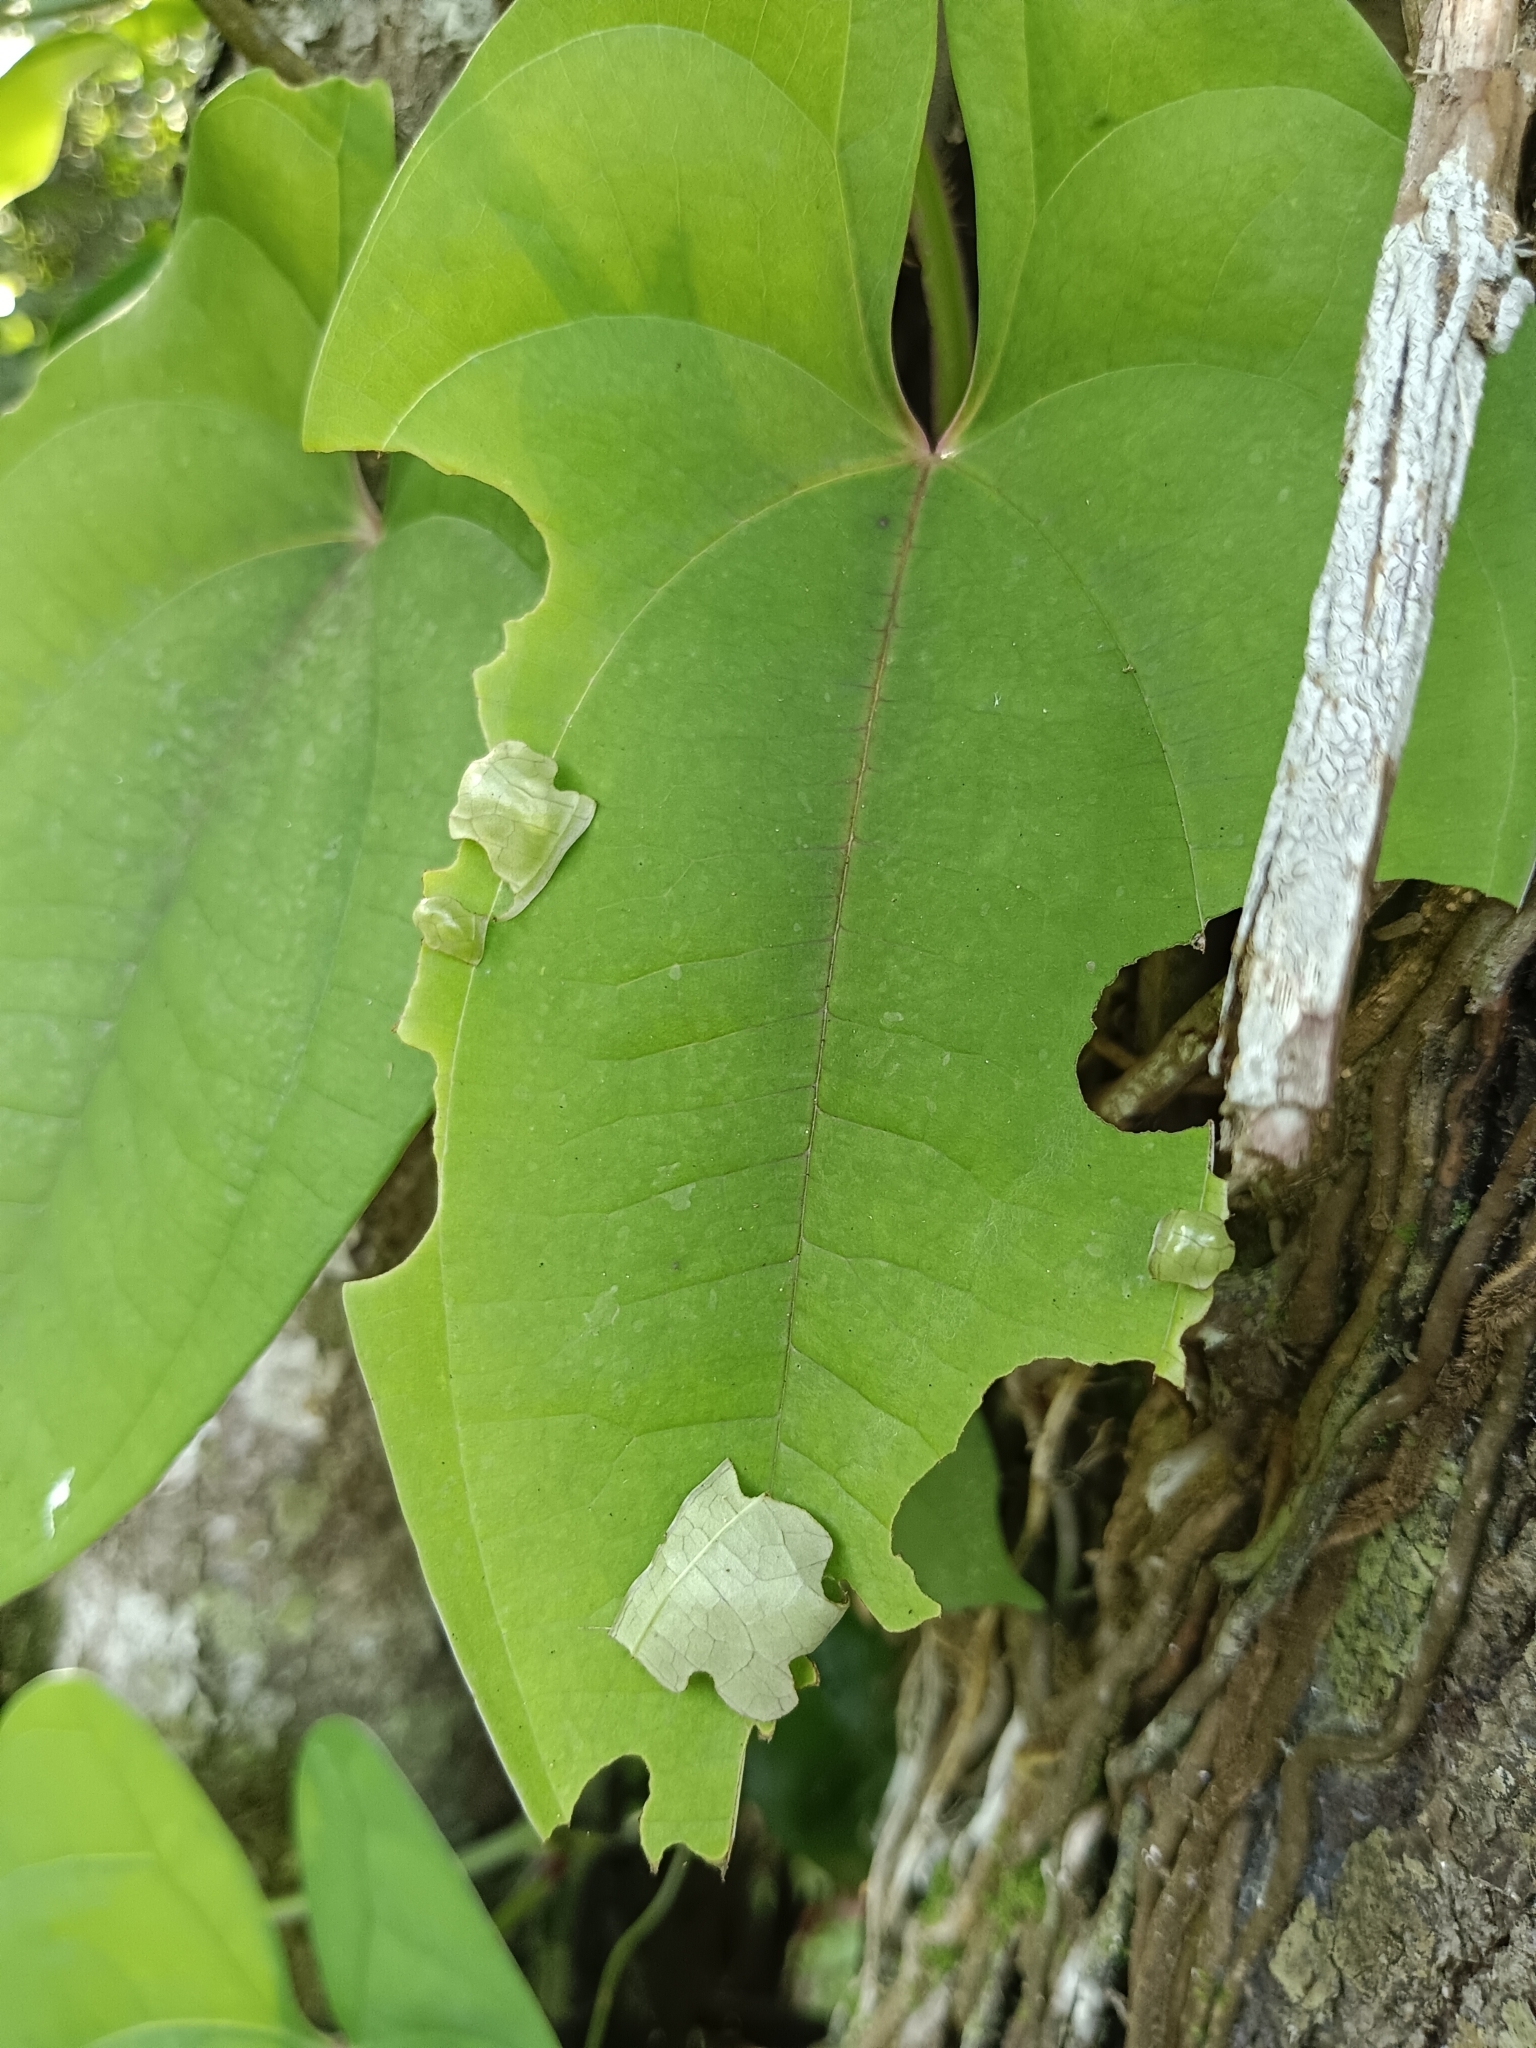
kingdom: Animalia
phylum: Arthropoda
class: Insecta
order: Lepidoptera
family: Hesperiidae
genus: Tagiades
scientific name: Tagiades litigiosa
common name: Water snow flat
